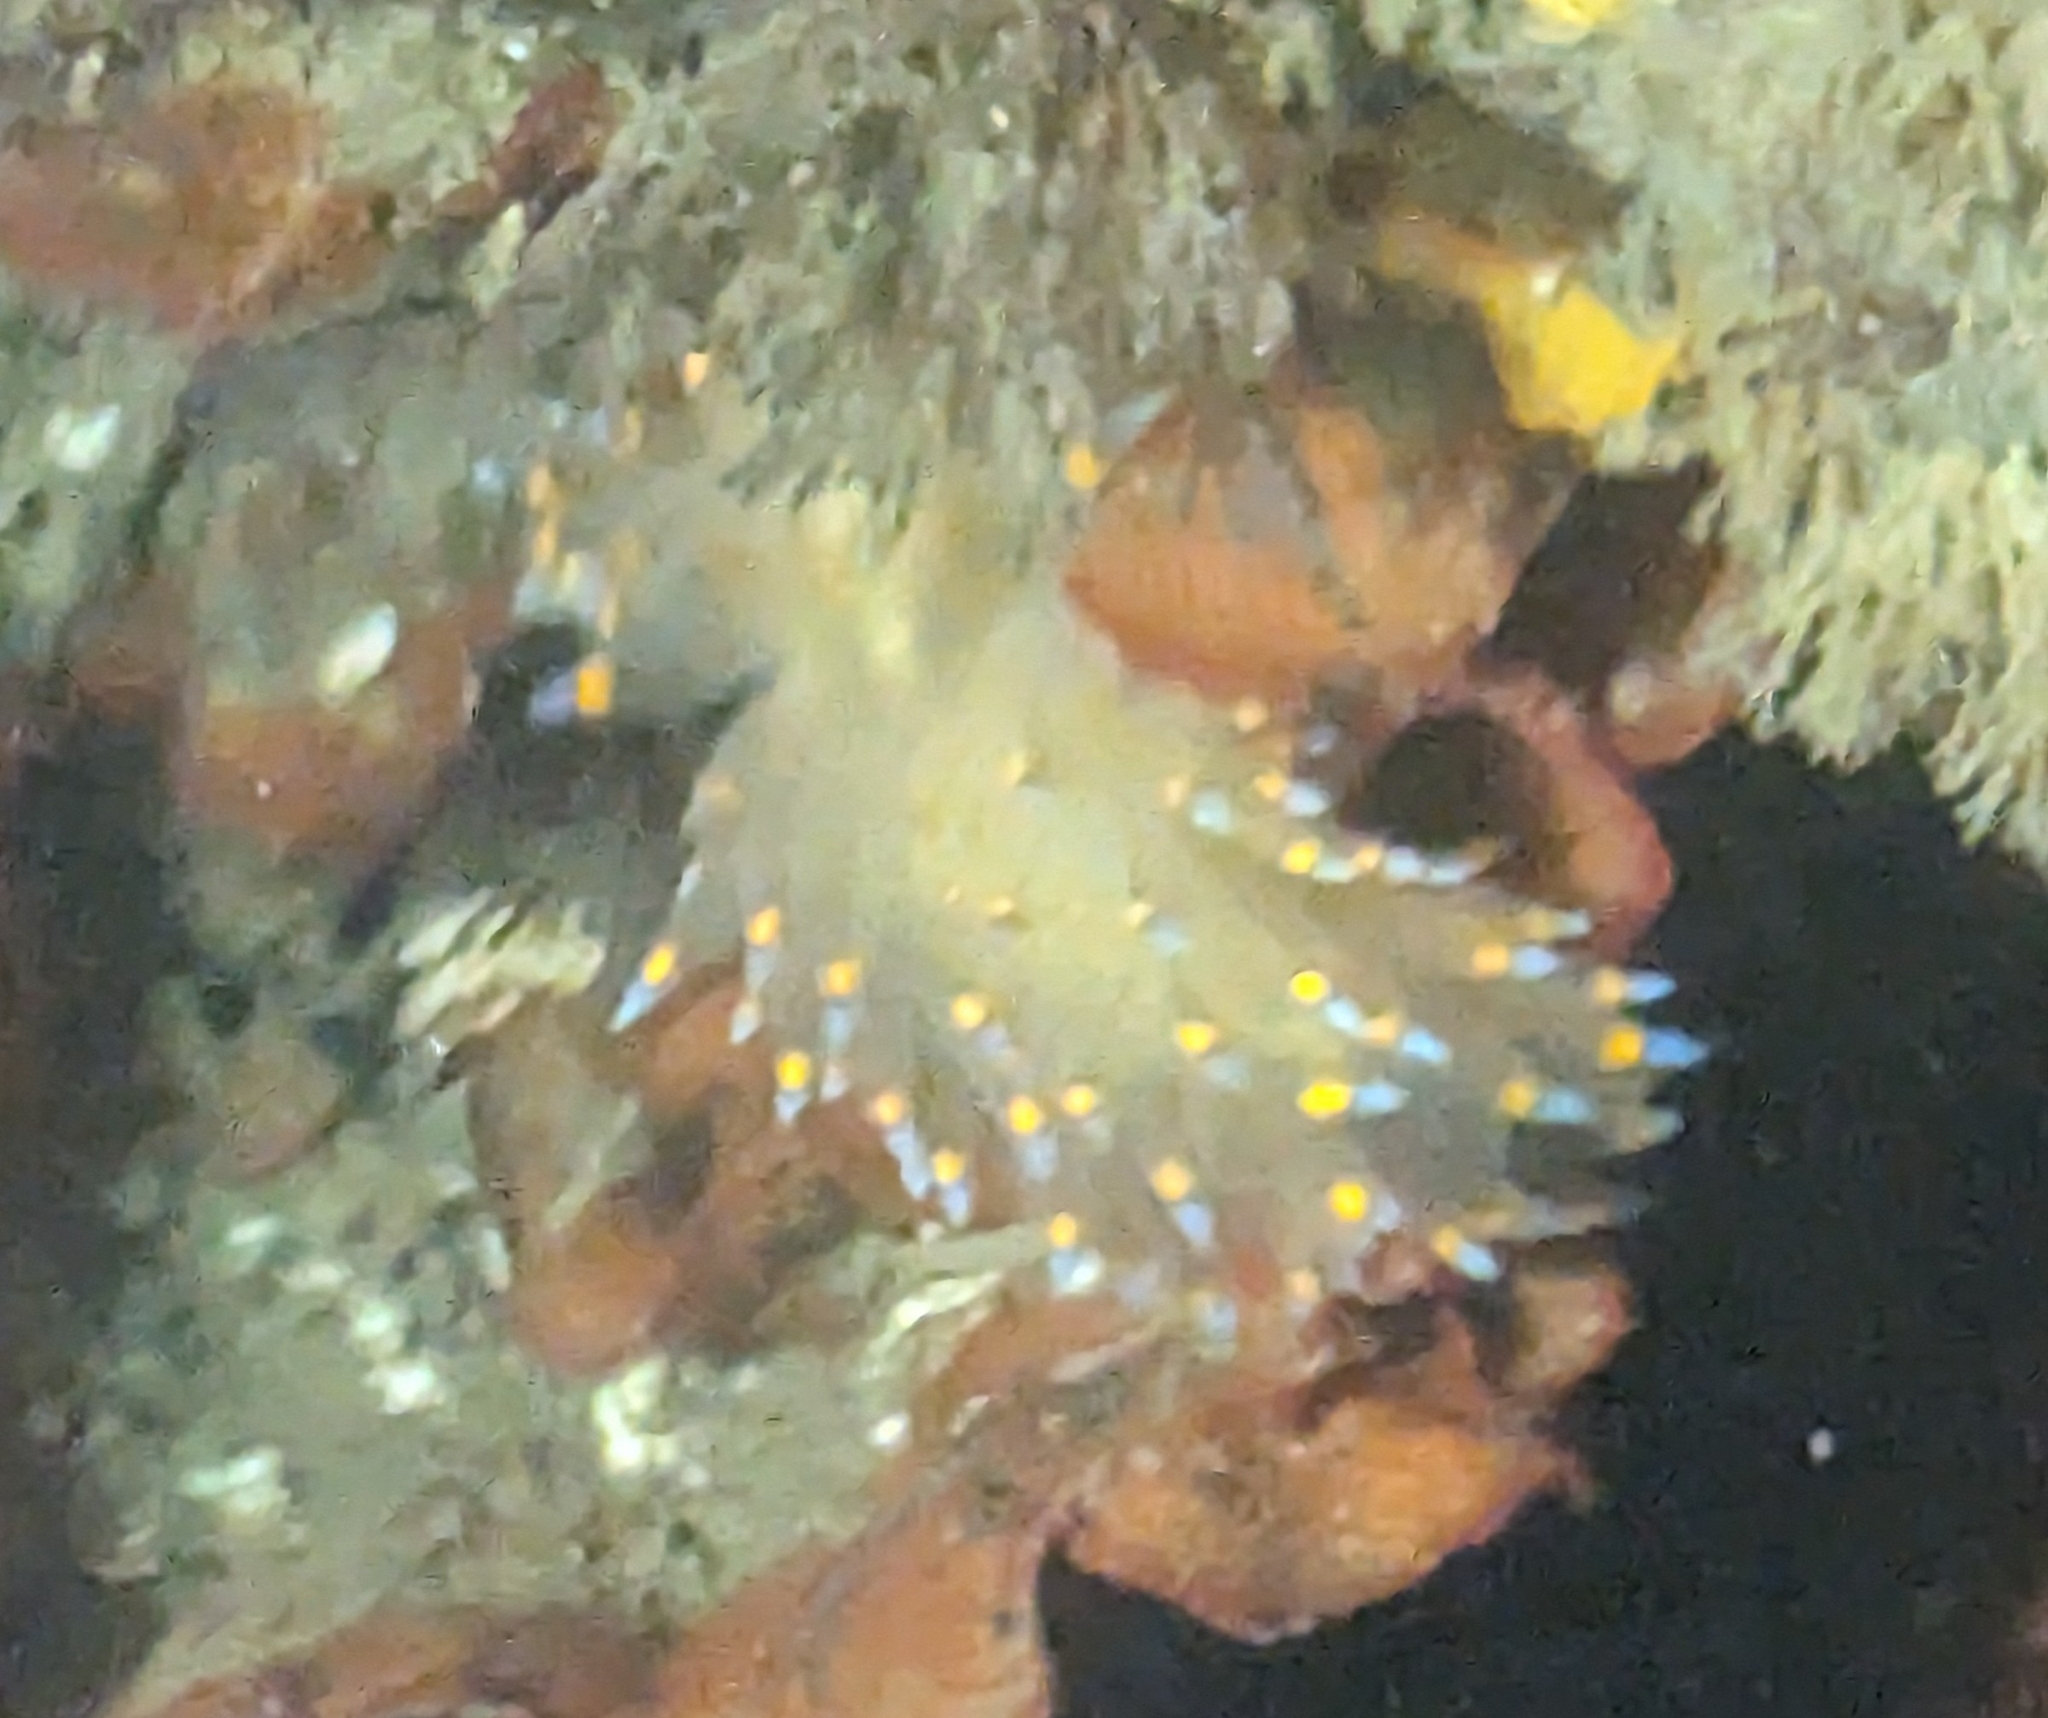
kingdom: Animalia
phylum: Mollusca
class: Gastropoda
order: Nudibranchia
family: Janolidae
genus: Antiopella
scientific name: Antiopella barbarensis
